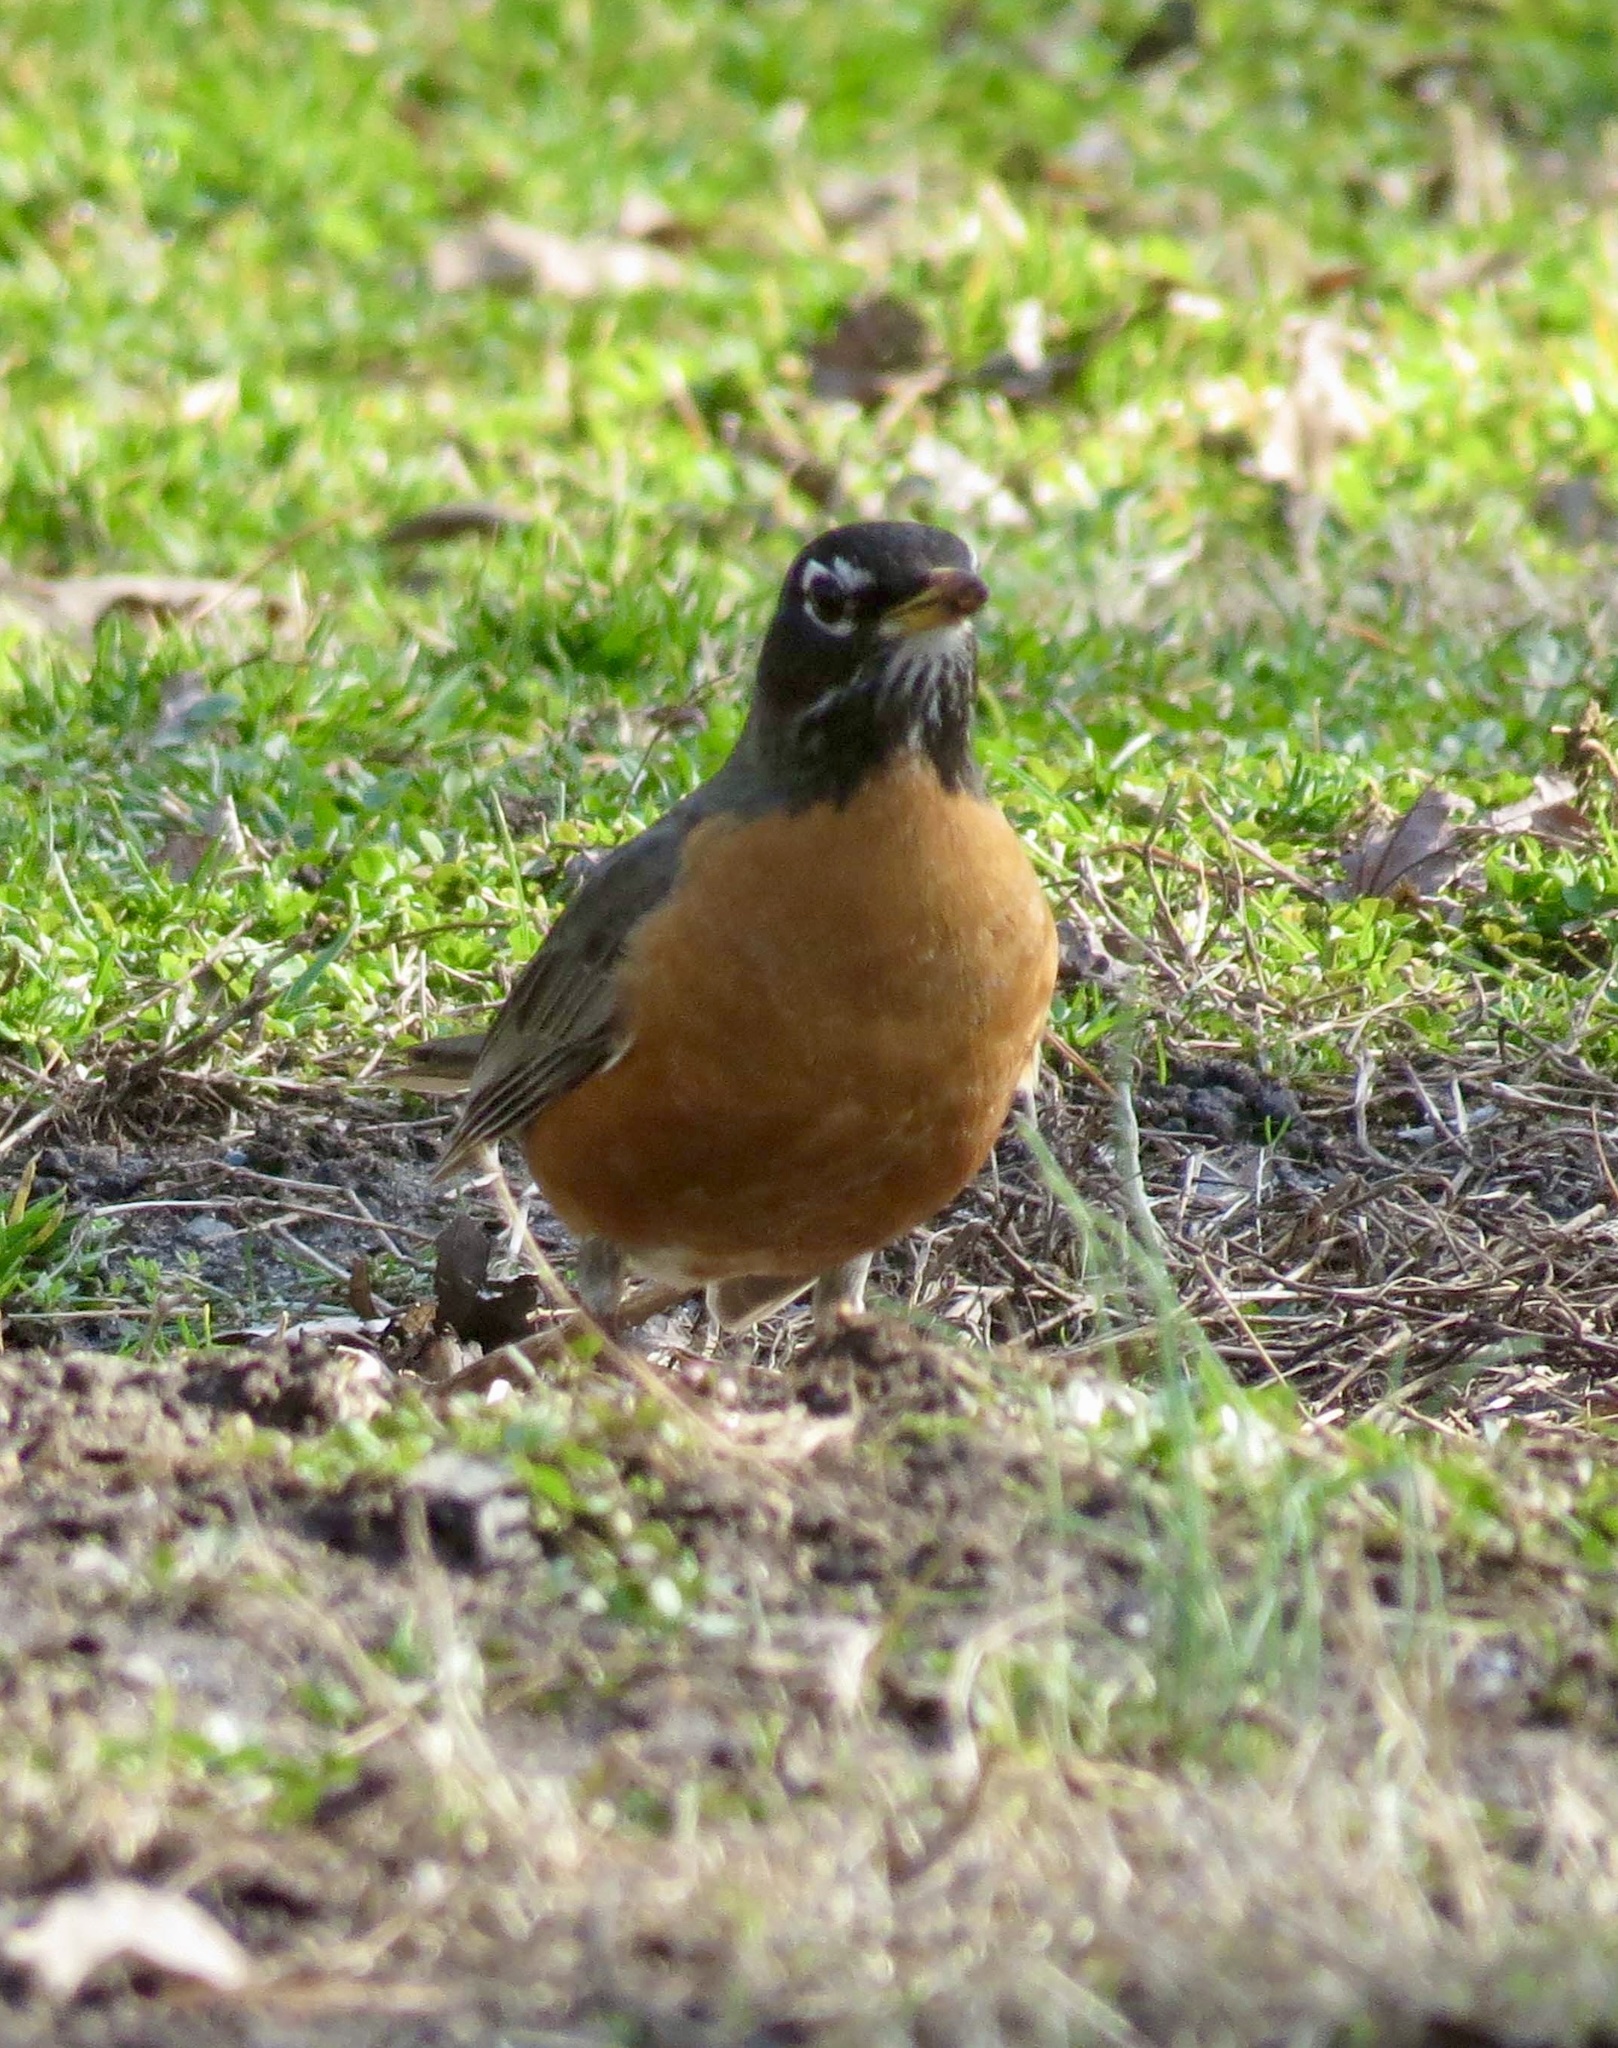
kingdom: Animalia
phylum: Chordata
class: Aves
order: Passeriformes
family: Turdidae
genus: Turdus
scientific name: Turdus migratorius
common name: American robin
